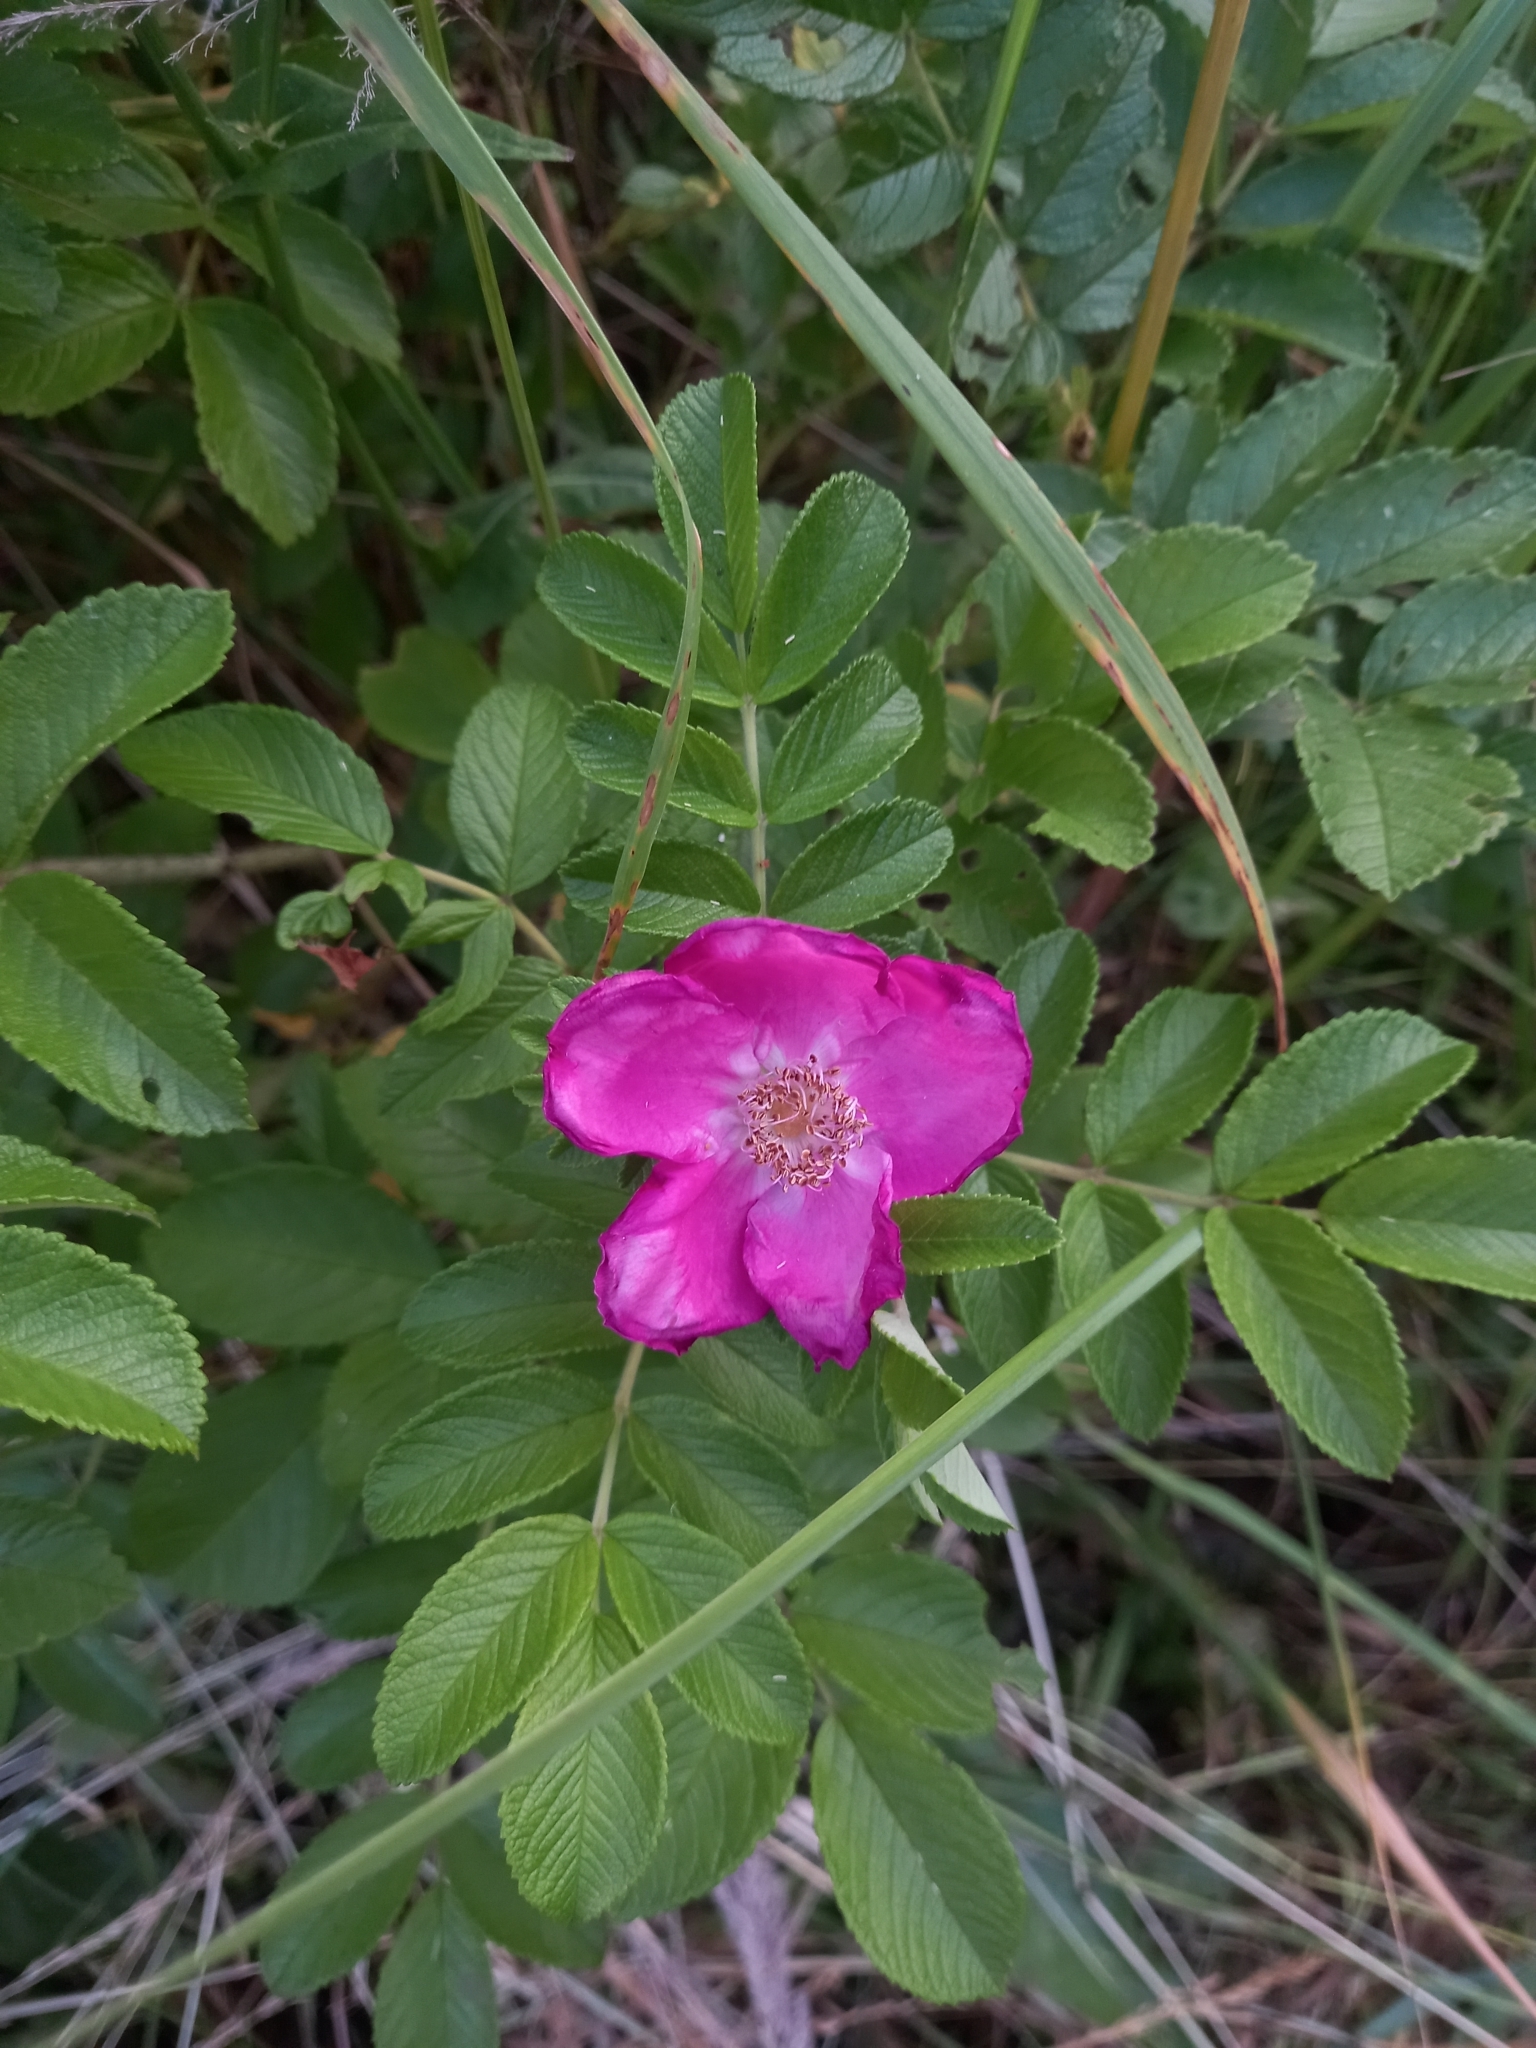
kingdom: Plantae
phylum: Tracheophyta
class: Magnoliopsida
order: Rosales
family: Rosaceae
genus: Rosa
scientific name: Rosa rugosa
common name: Japanese rose
